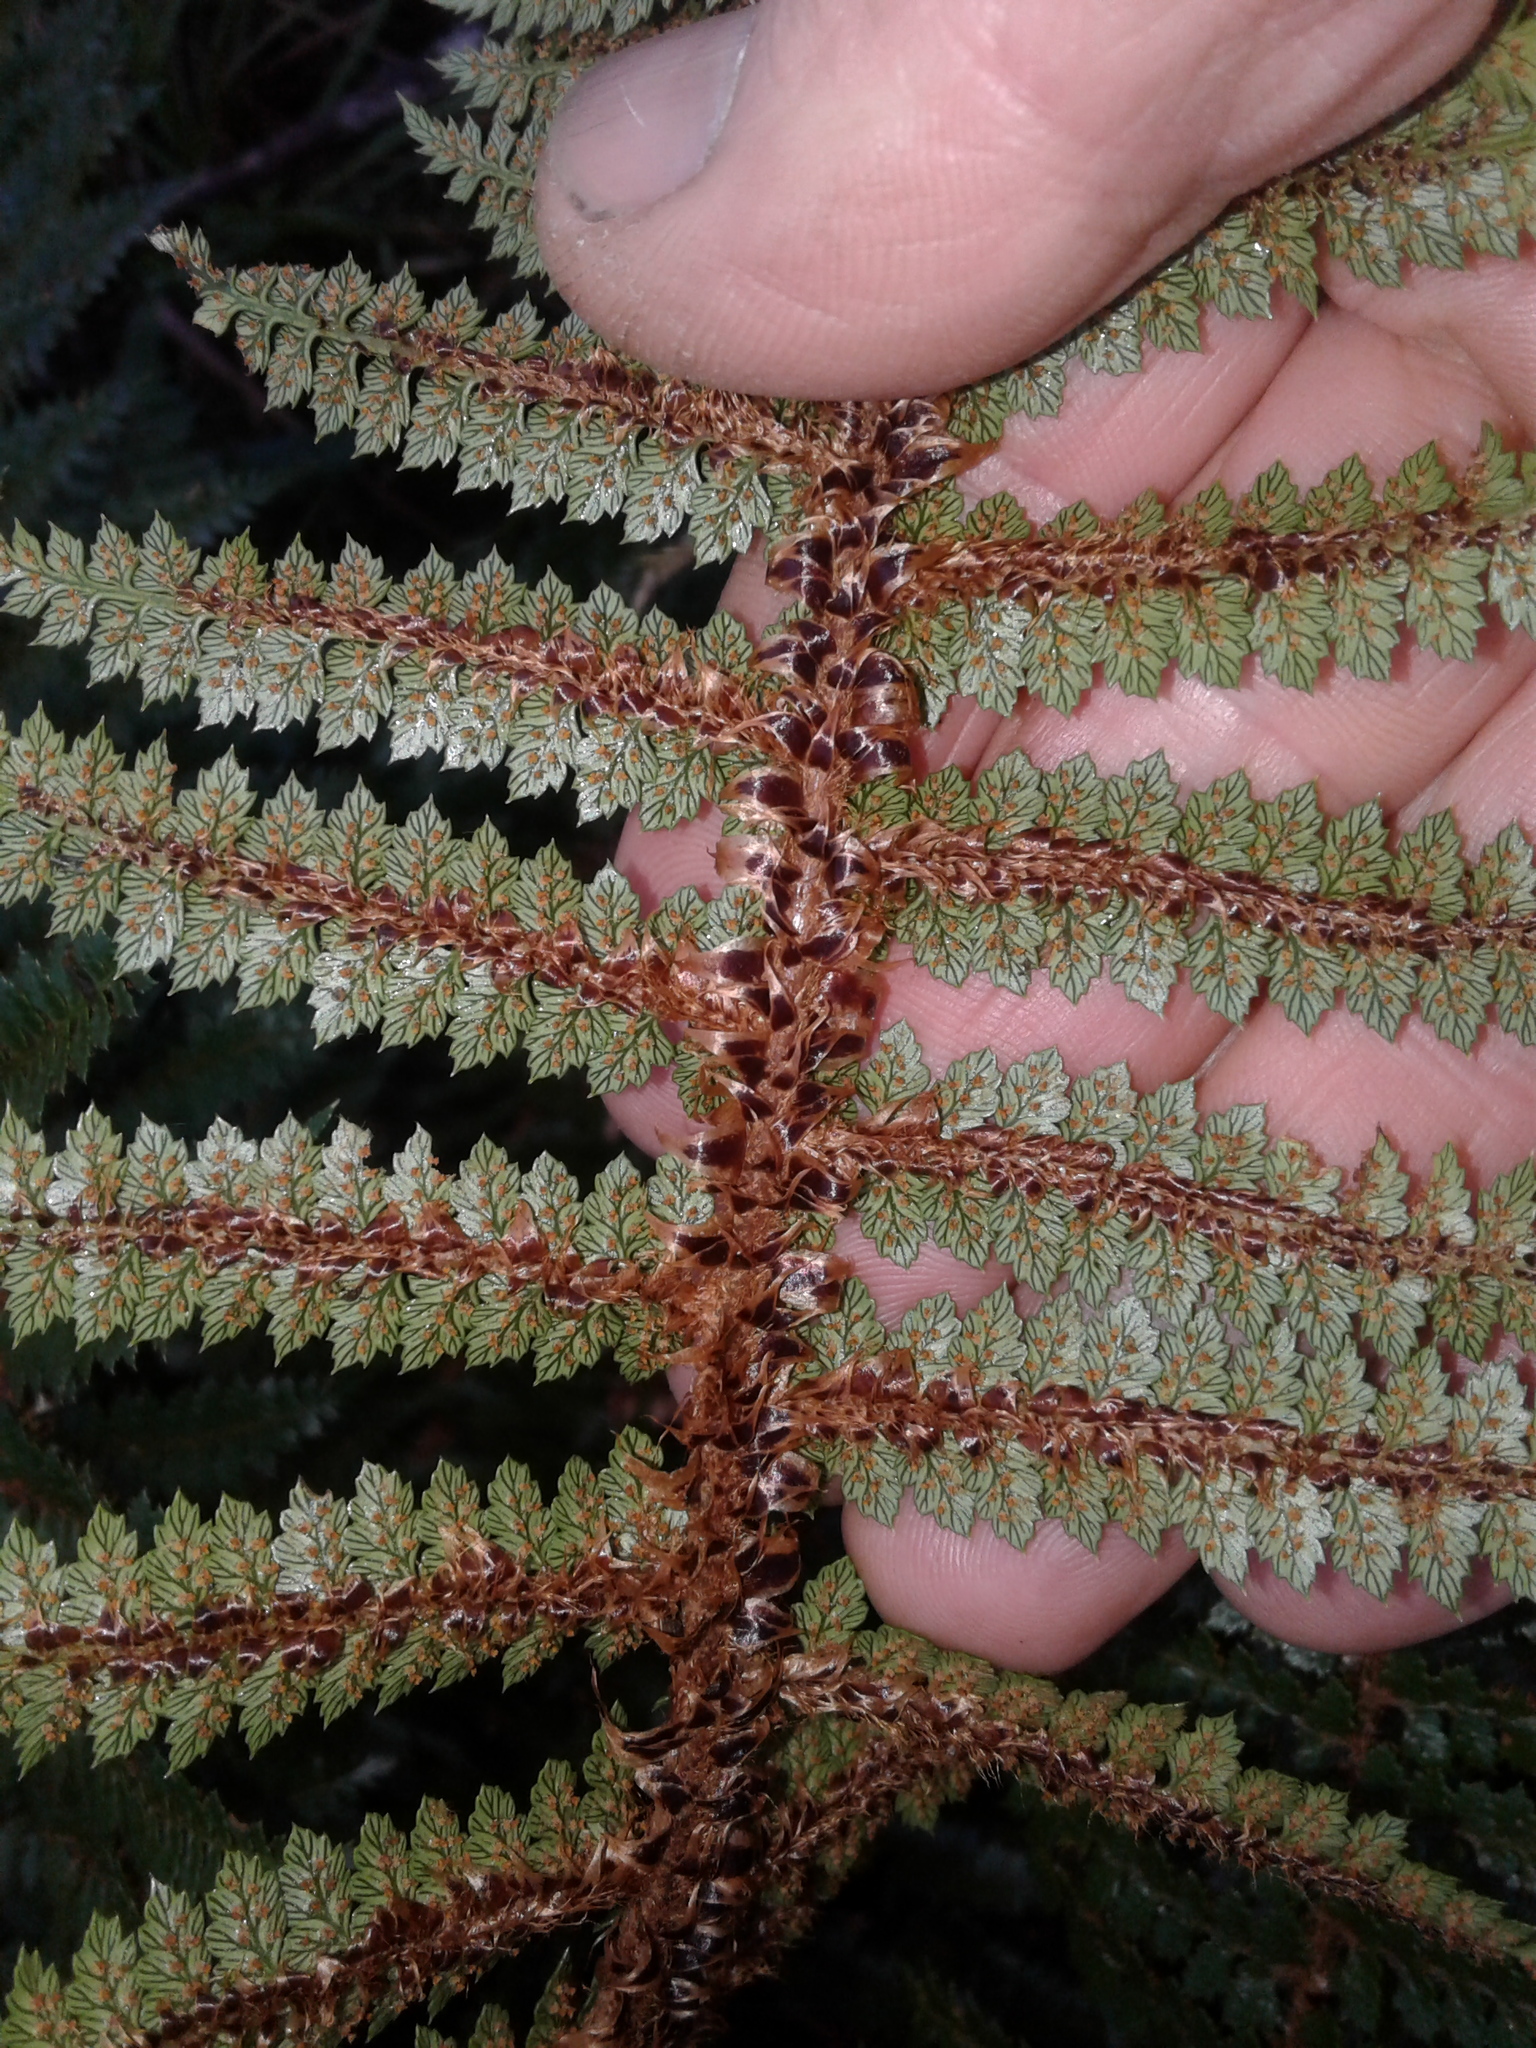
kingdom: Plantae
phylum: Tracheophyta
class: Polypodiopsida
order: Polypodiales
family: Dryopteridaceae
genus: Polystichum
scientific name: Polystichum vestitum
